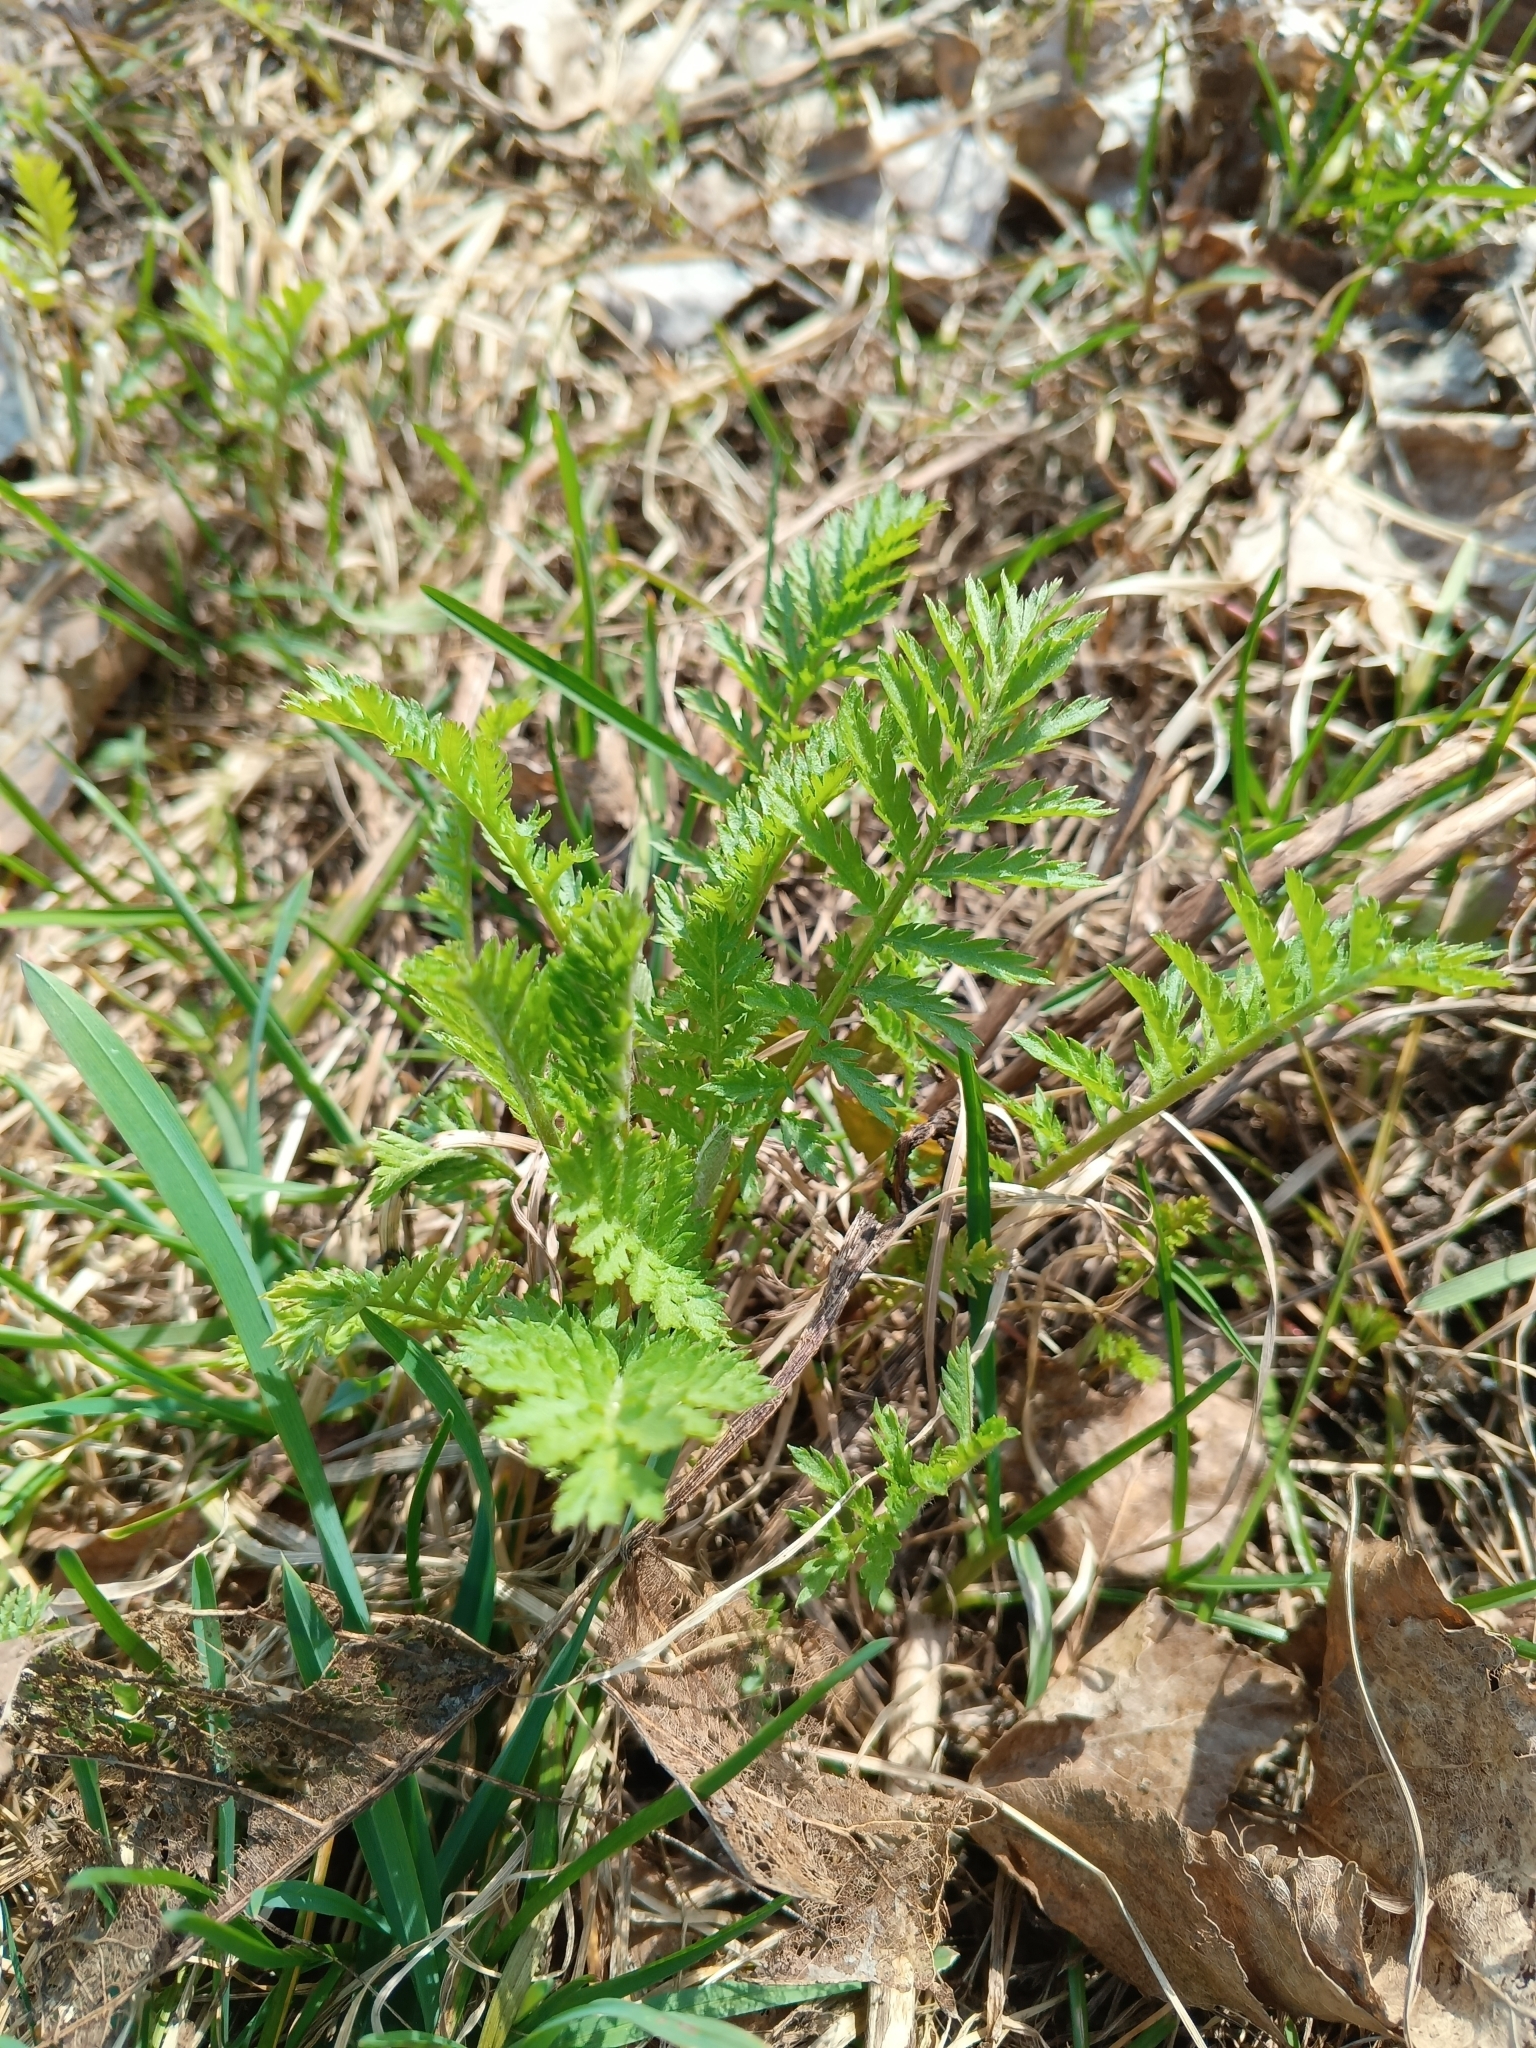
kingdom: Plantae
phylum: Tracheophyta
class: Magnoliopsida
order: Asterales
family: Asteraceae
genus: Tanacetum
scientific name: Tanacetum vulgare
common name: Common tansy
